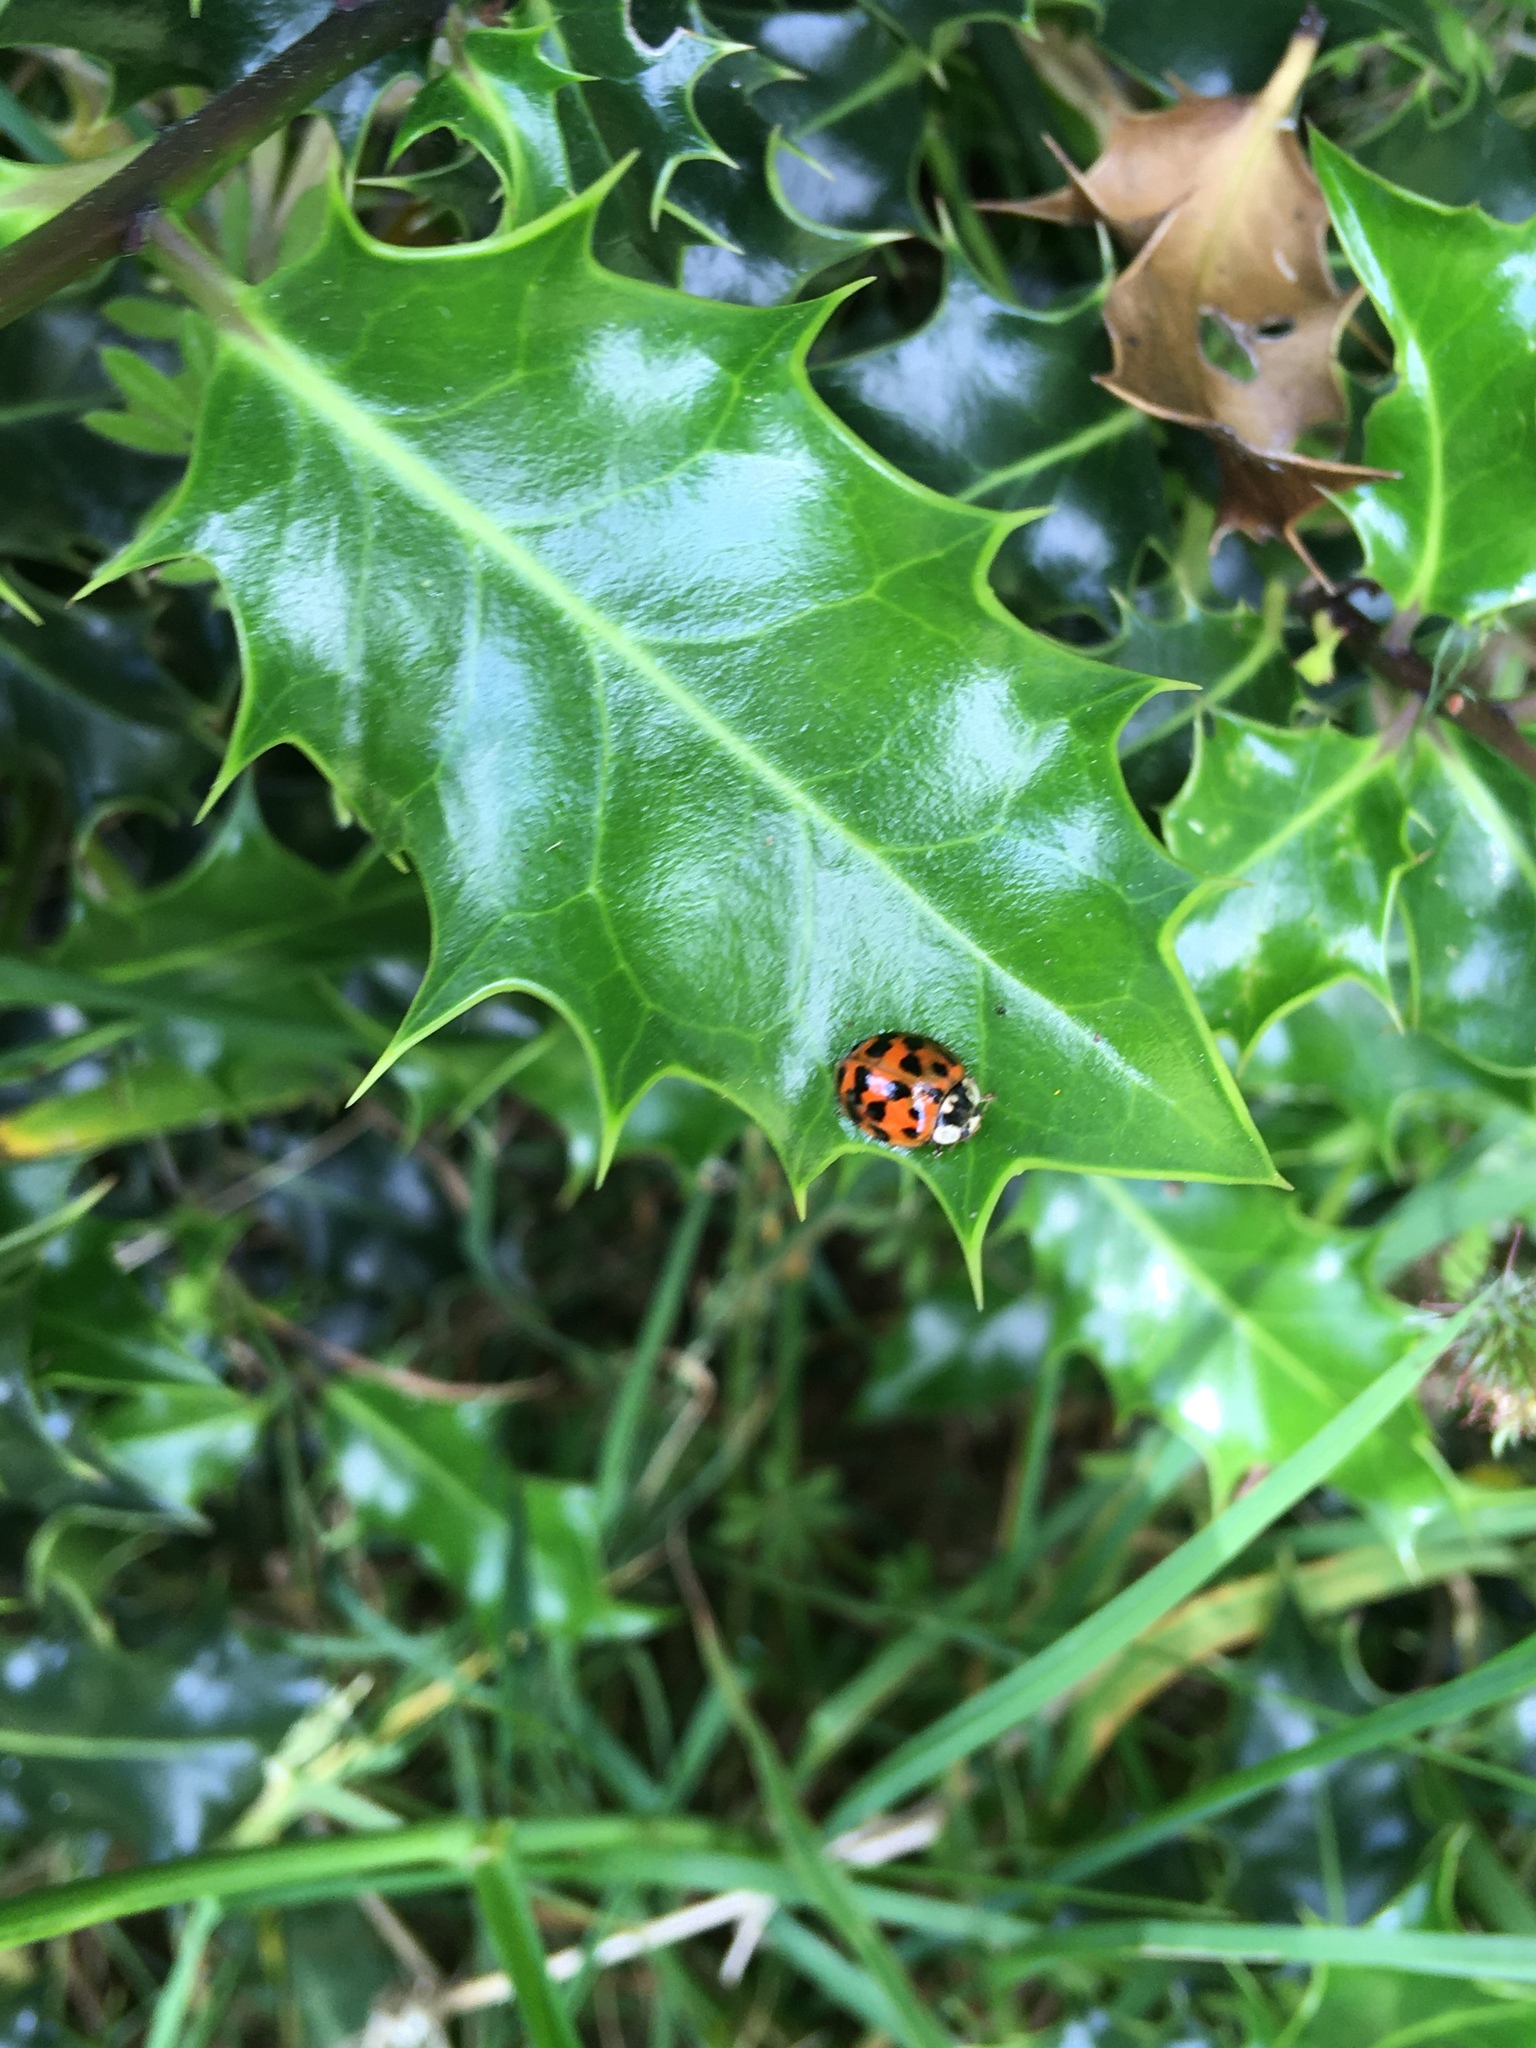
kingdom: Animalia
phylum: Arthropoda
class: Insecta
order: Coleoptera
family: Coccinellidae
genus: Harmonia
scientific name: Harmonia axyridis
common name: Harlequin ladybird
